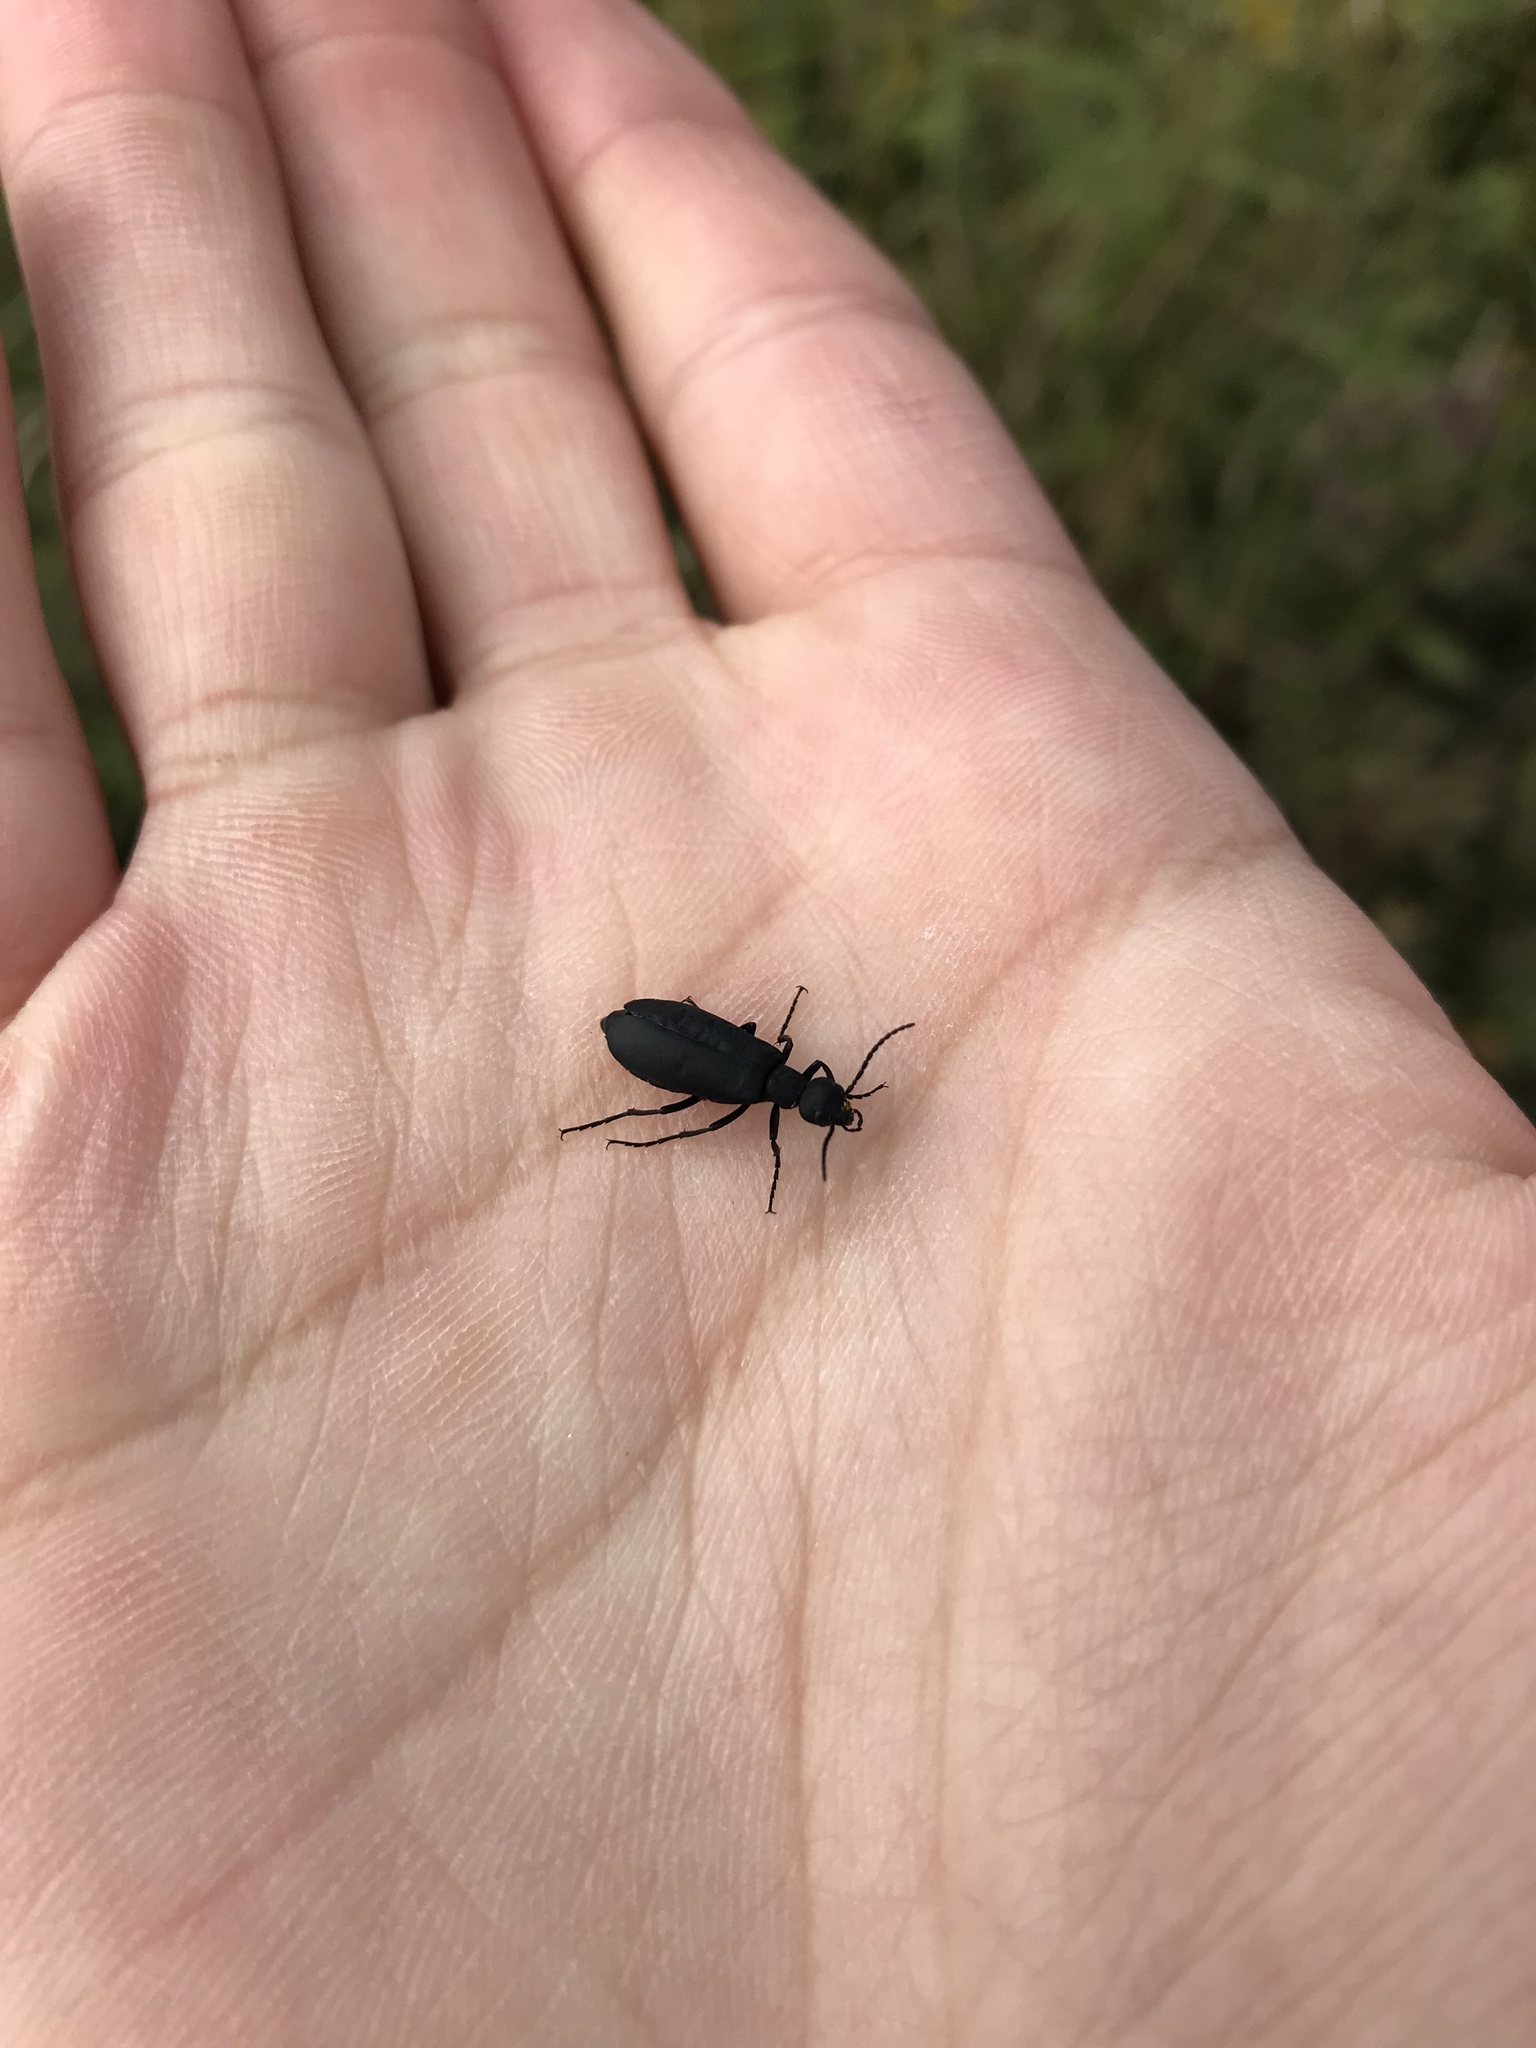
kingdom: Animalia
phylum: Arthropoda
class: Insecta
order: Coleoptera
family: Meloidae
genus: Epicauta
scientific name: Epicauta pensylvanica
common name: Black blister beetle
